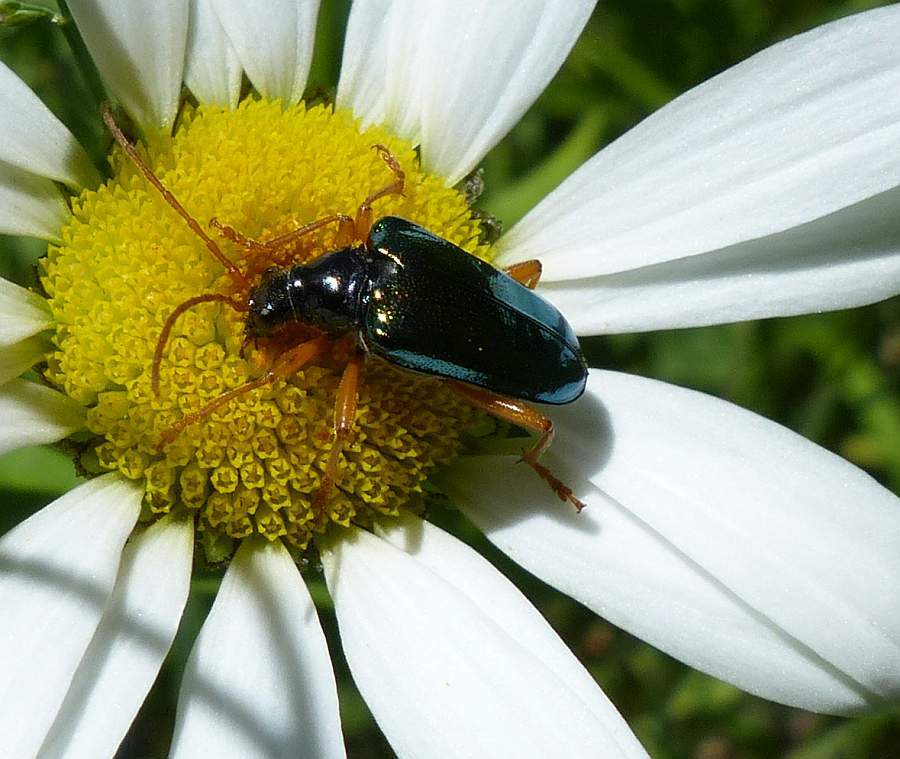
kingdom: Animalia
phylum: Arthropoda
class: Insecta
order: Coleoptera
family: Cerambycidae
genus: Gaurotes
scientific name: Gaurotes cyanipennis
